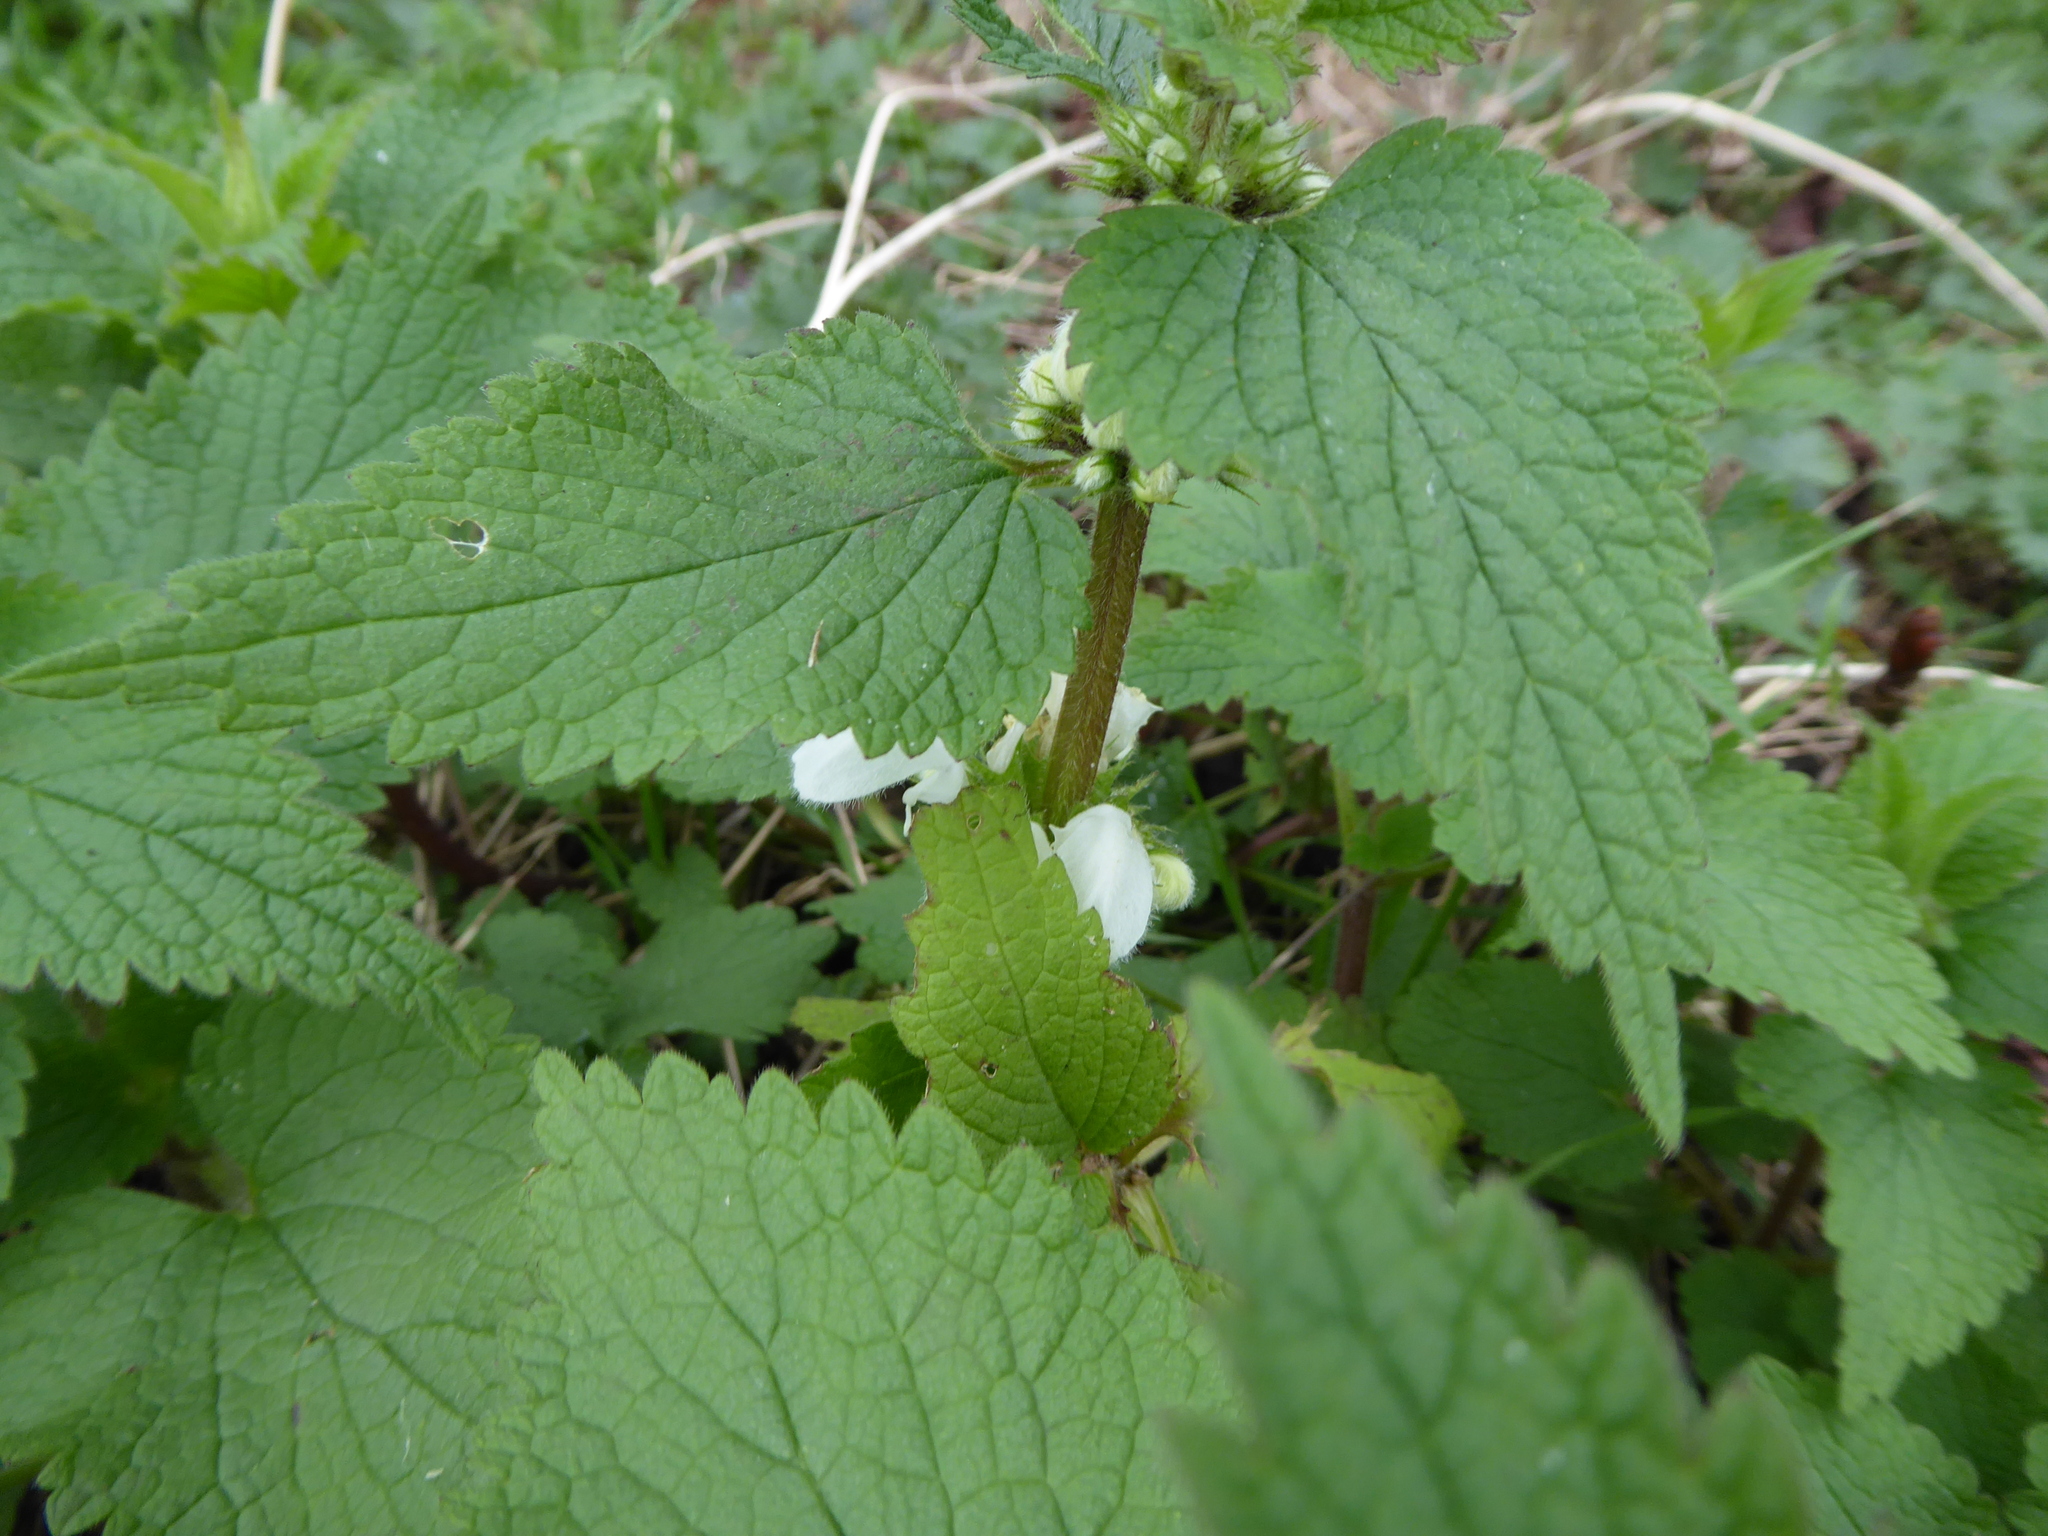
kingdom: Plantae
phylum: Tracheophyta
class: Magnoliopsida
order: Lamiales
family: Lamiaceae
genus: Lamium
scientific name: Lamium album
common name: White dead-nettle
